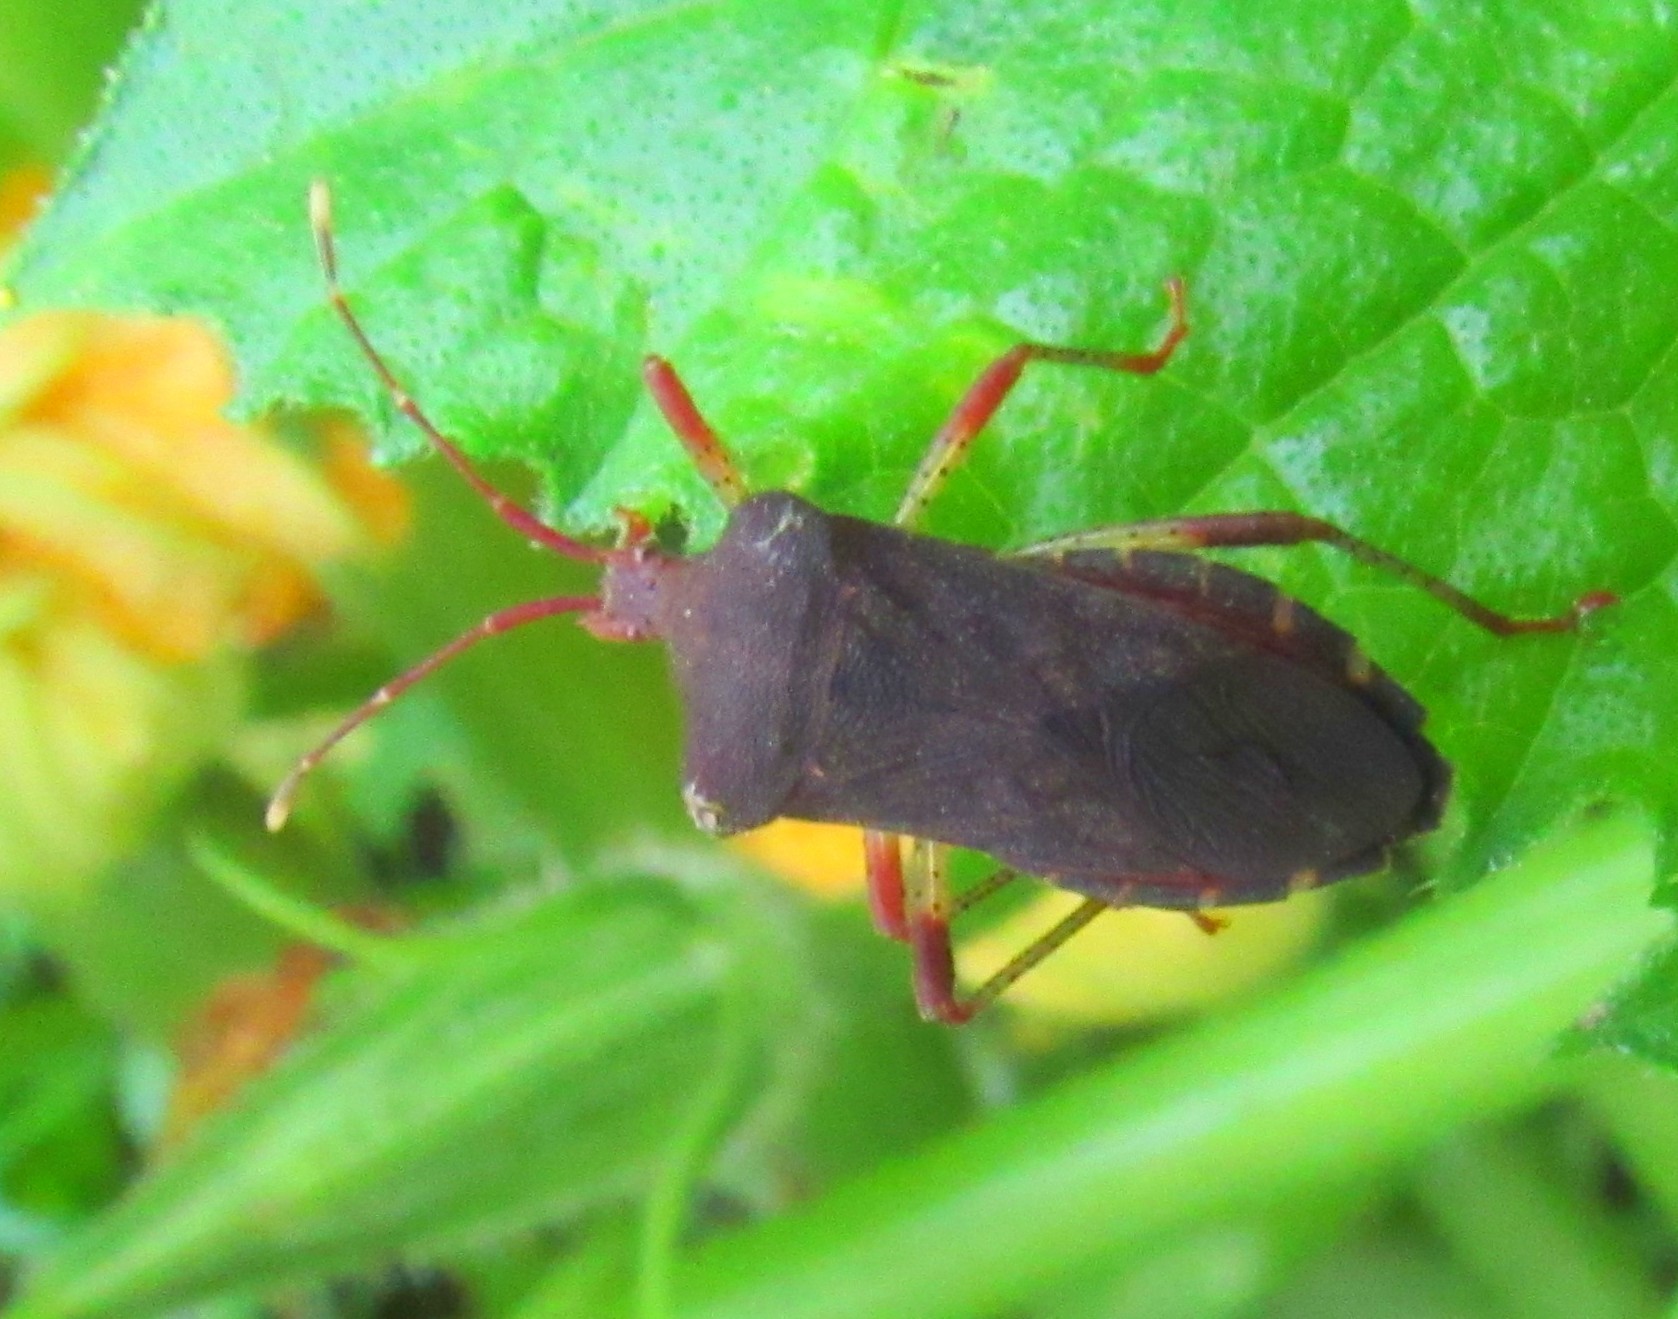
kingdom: Animalia
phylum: Arthropoda
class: Insecta
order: Hemiptera
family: Coreidae
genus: Anasa
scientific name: Anasa scorbutica
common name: Squash bug
